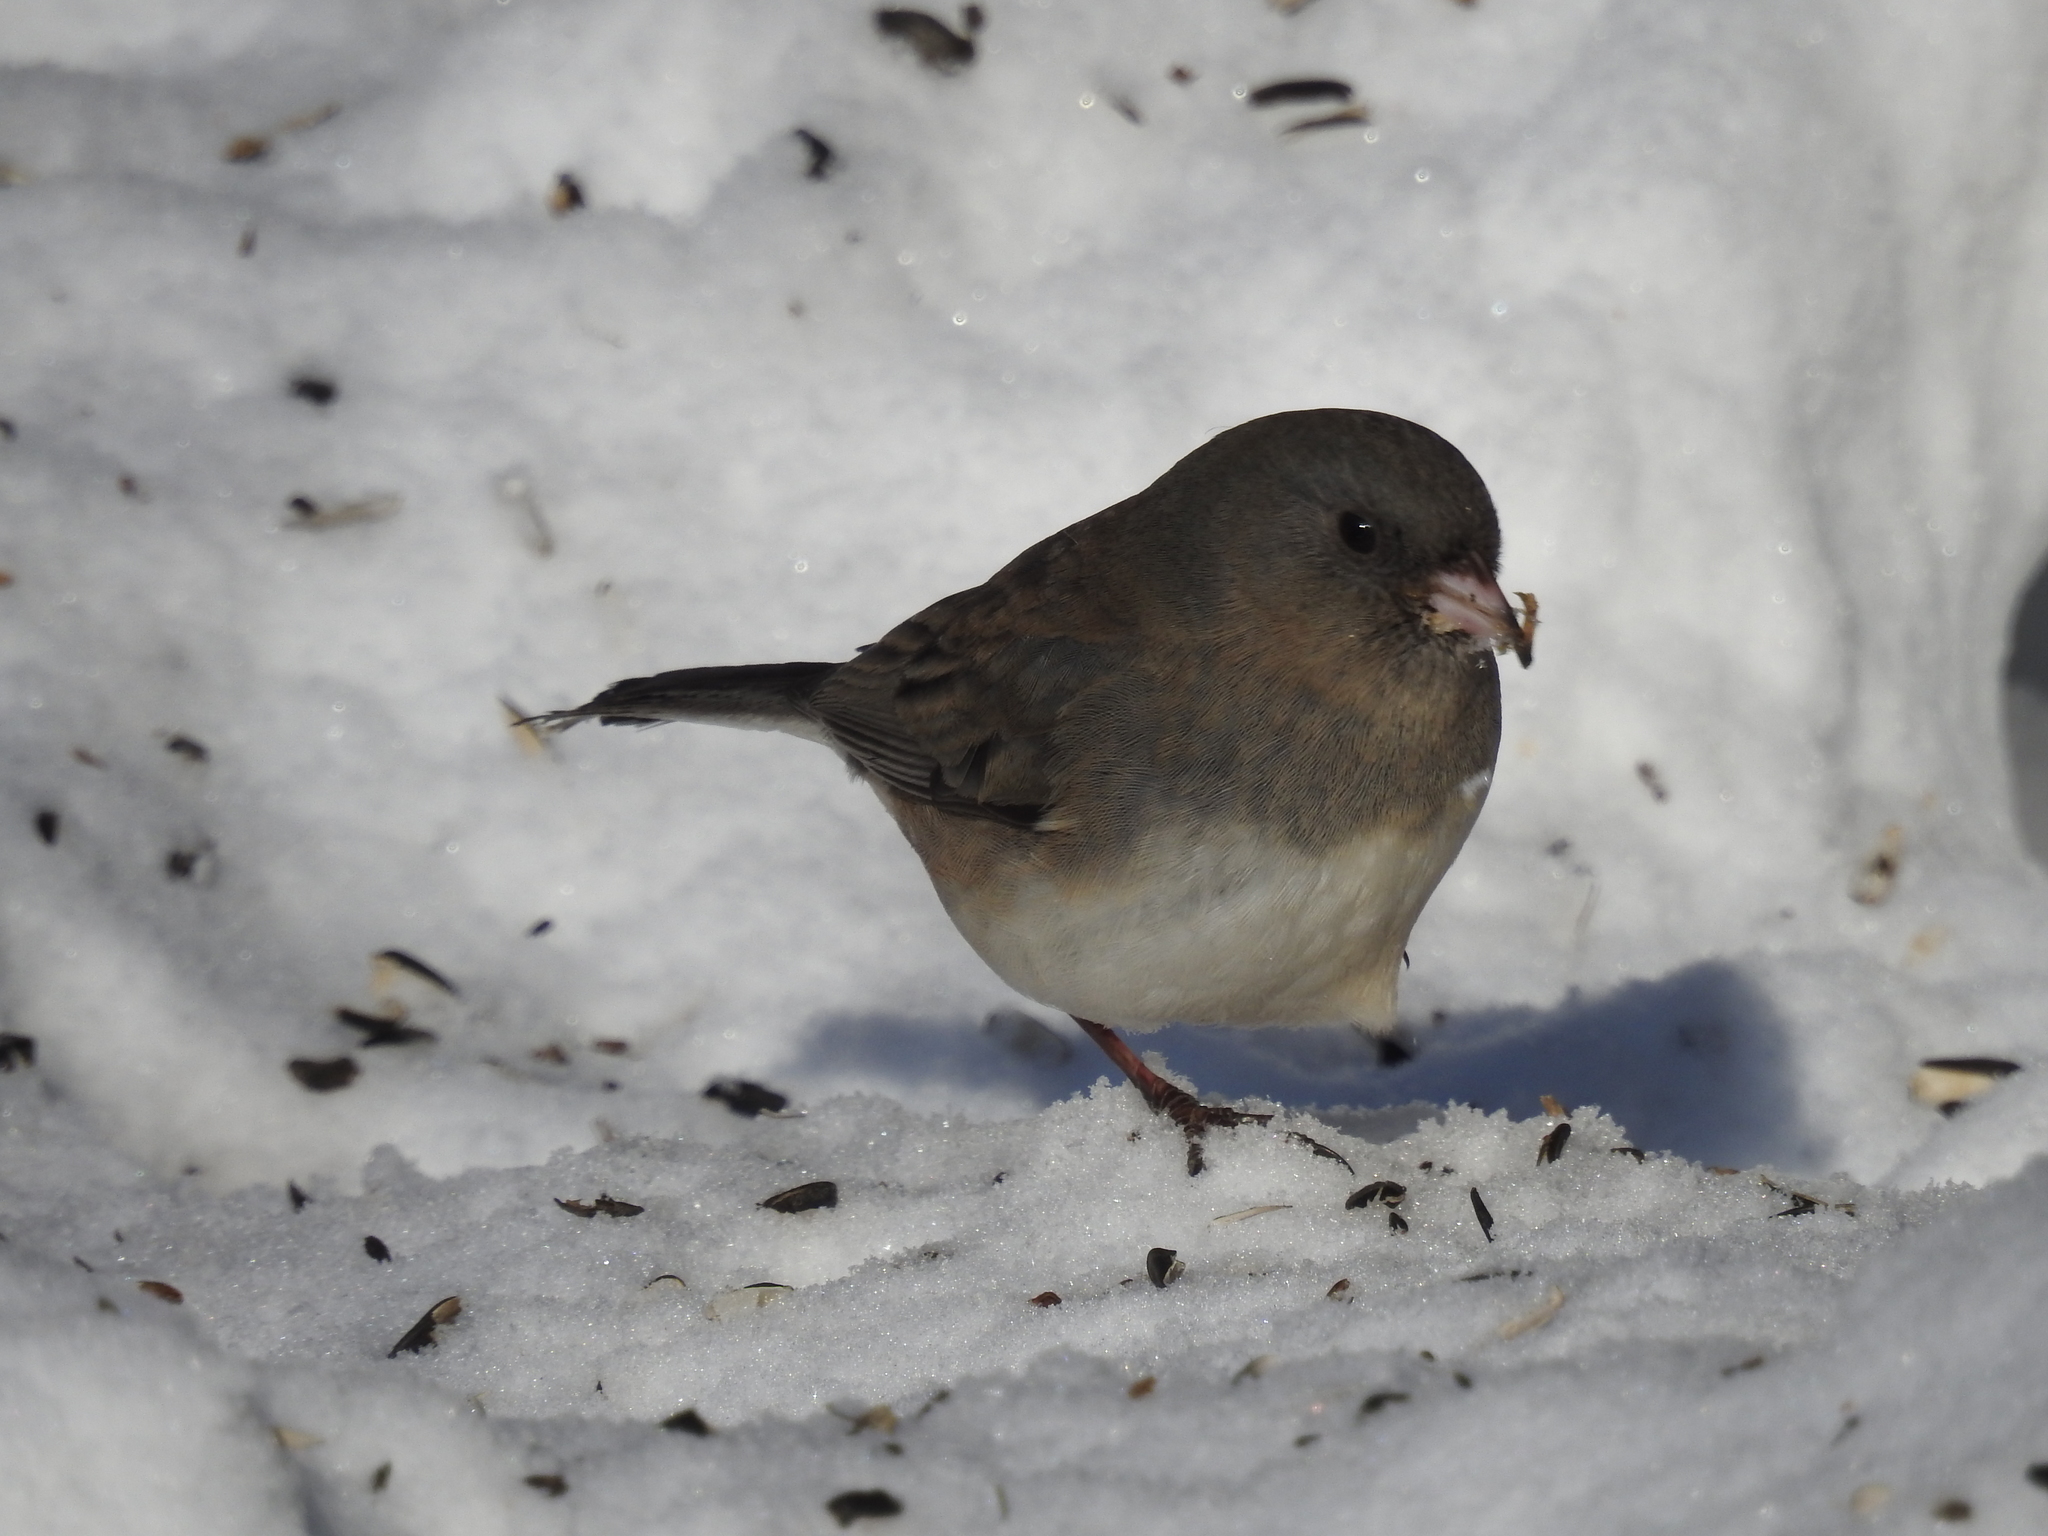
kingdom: Animalia
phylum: Chordata
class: Aves
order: Passeriformes
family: Passerellidae
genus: Junco
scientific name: Junco hyemalis
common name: Dark-eyed junco
